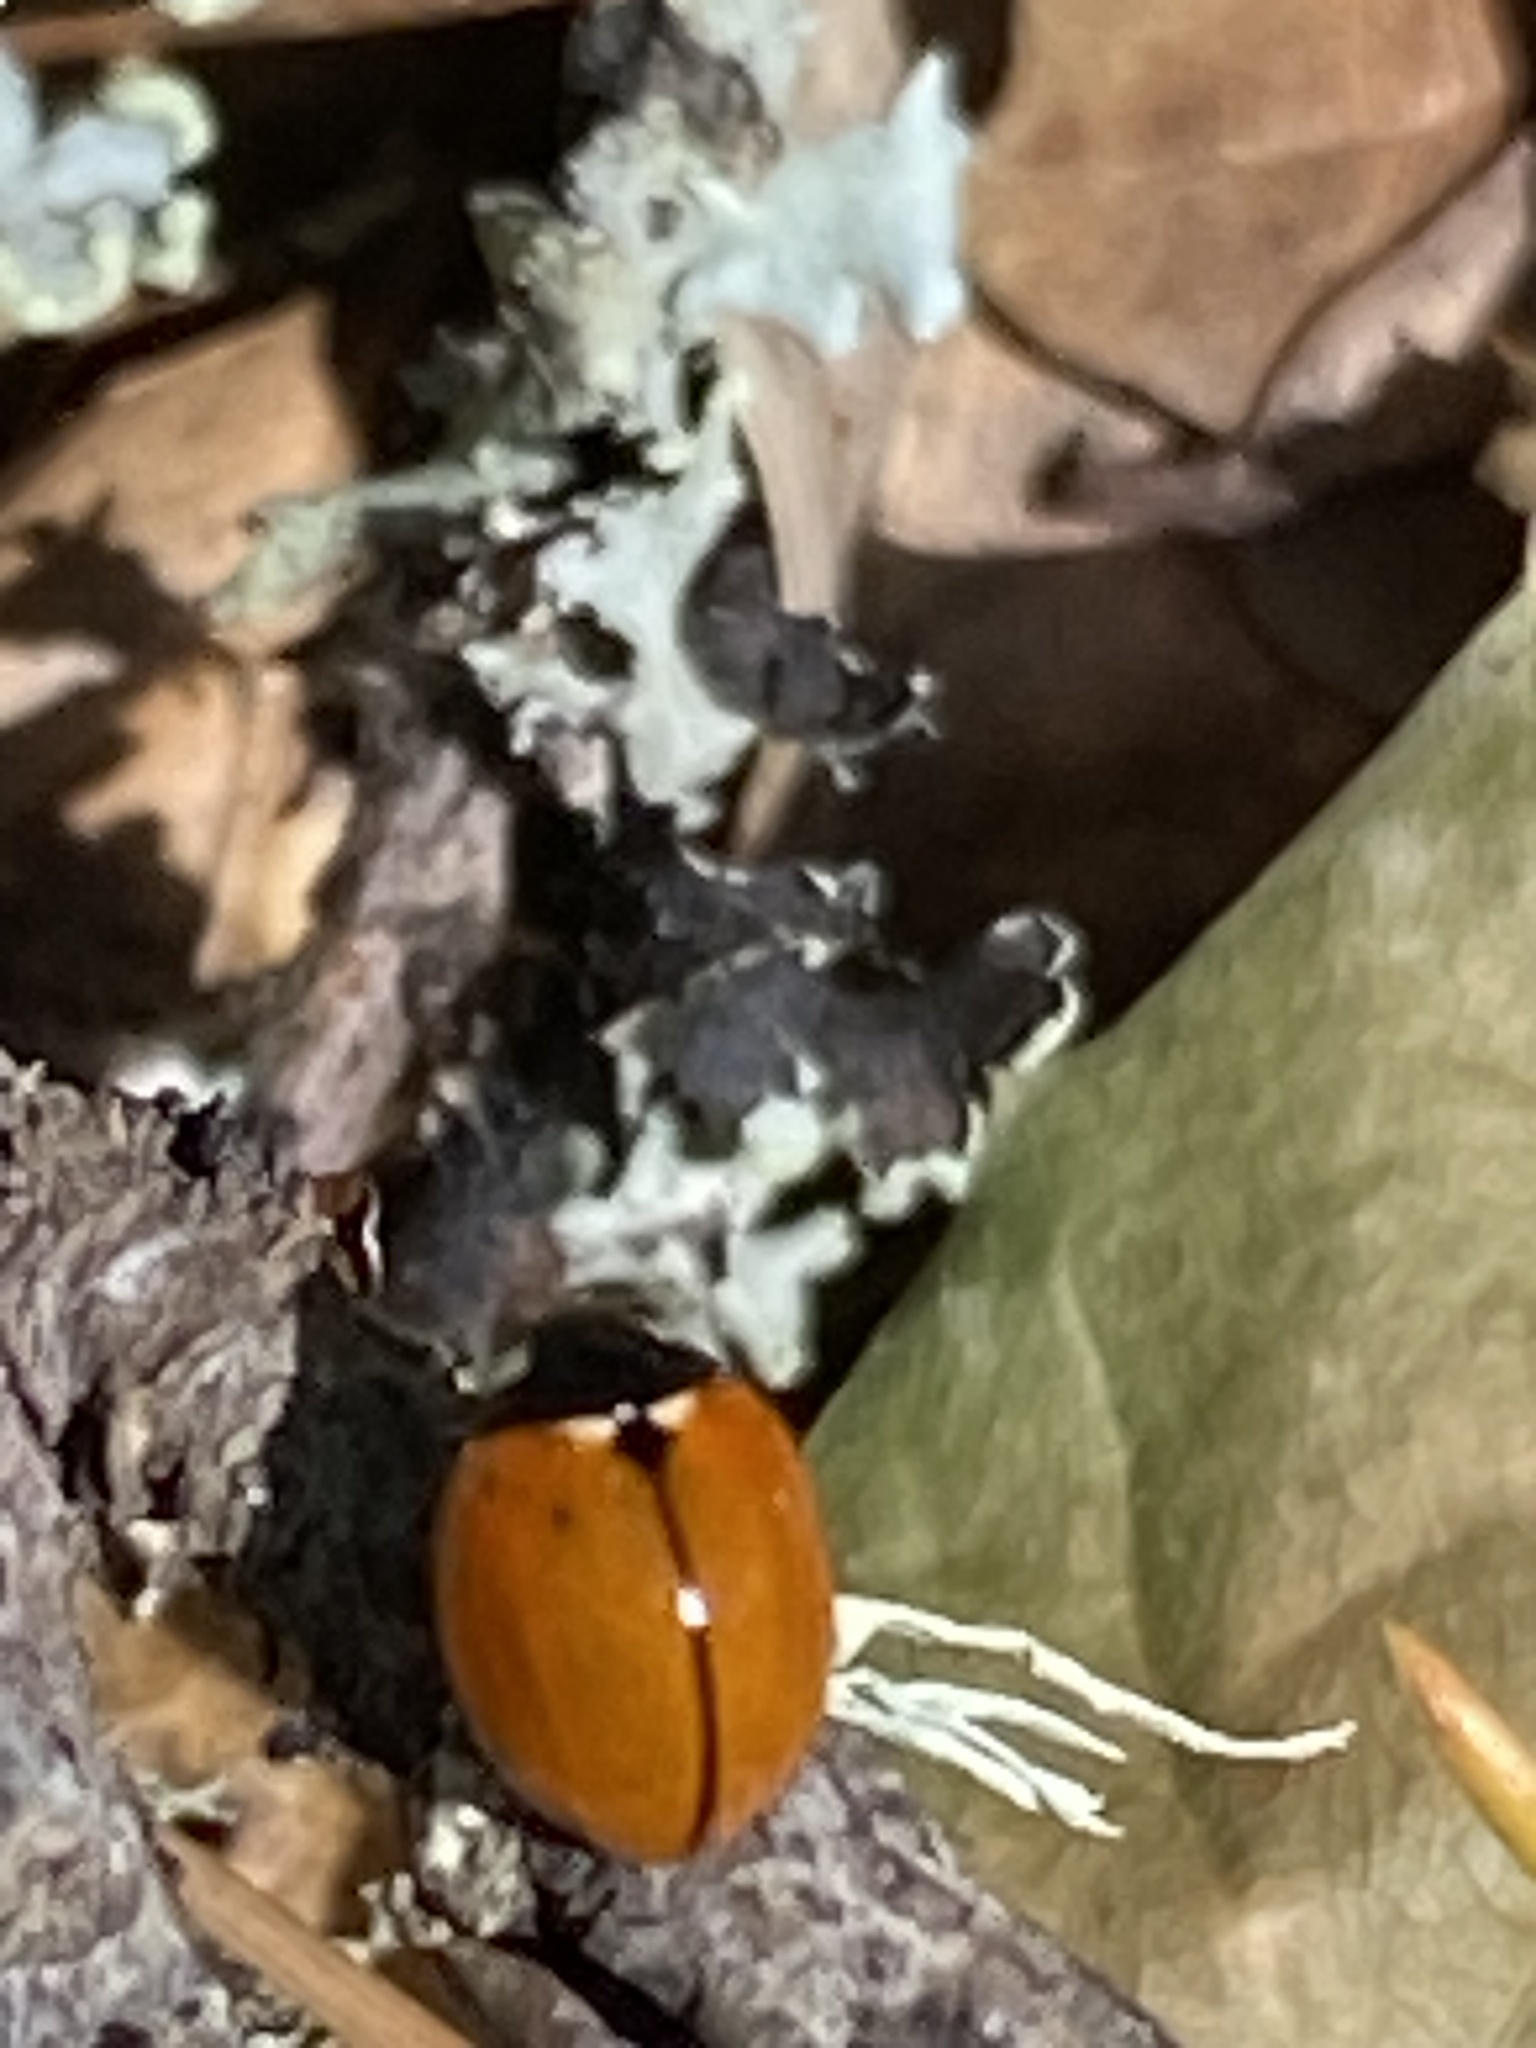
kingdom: Animalia
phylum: Arthropoda
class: Insecta
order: Coleoptera
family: Coccinellidae
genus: Coccinella
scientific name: Coccinella californica
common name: Lady beetle
